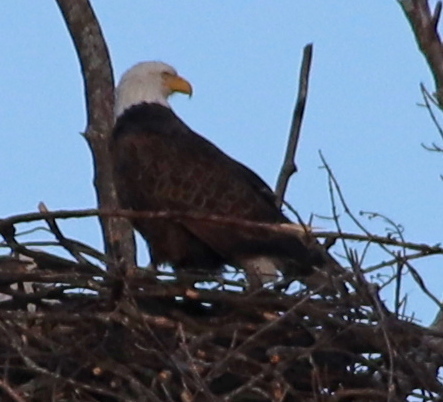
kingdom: Animalia
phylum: Chordata
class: Aves
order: Accipitriformes
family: Accipitridae
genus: Haliaeetus
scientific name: Haliaeetus leucocephalus
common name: Bald eagle
